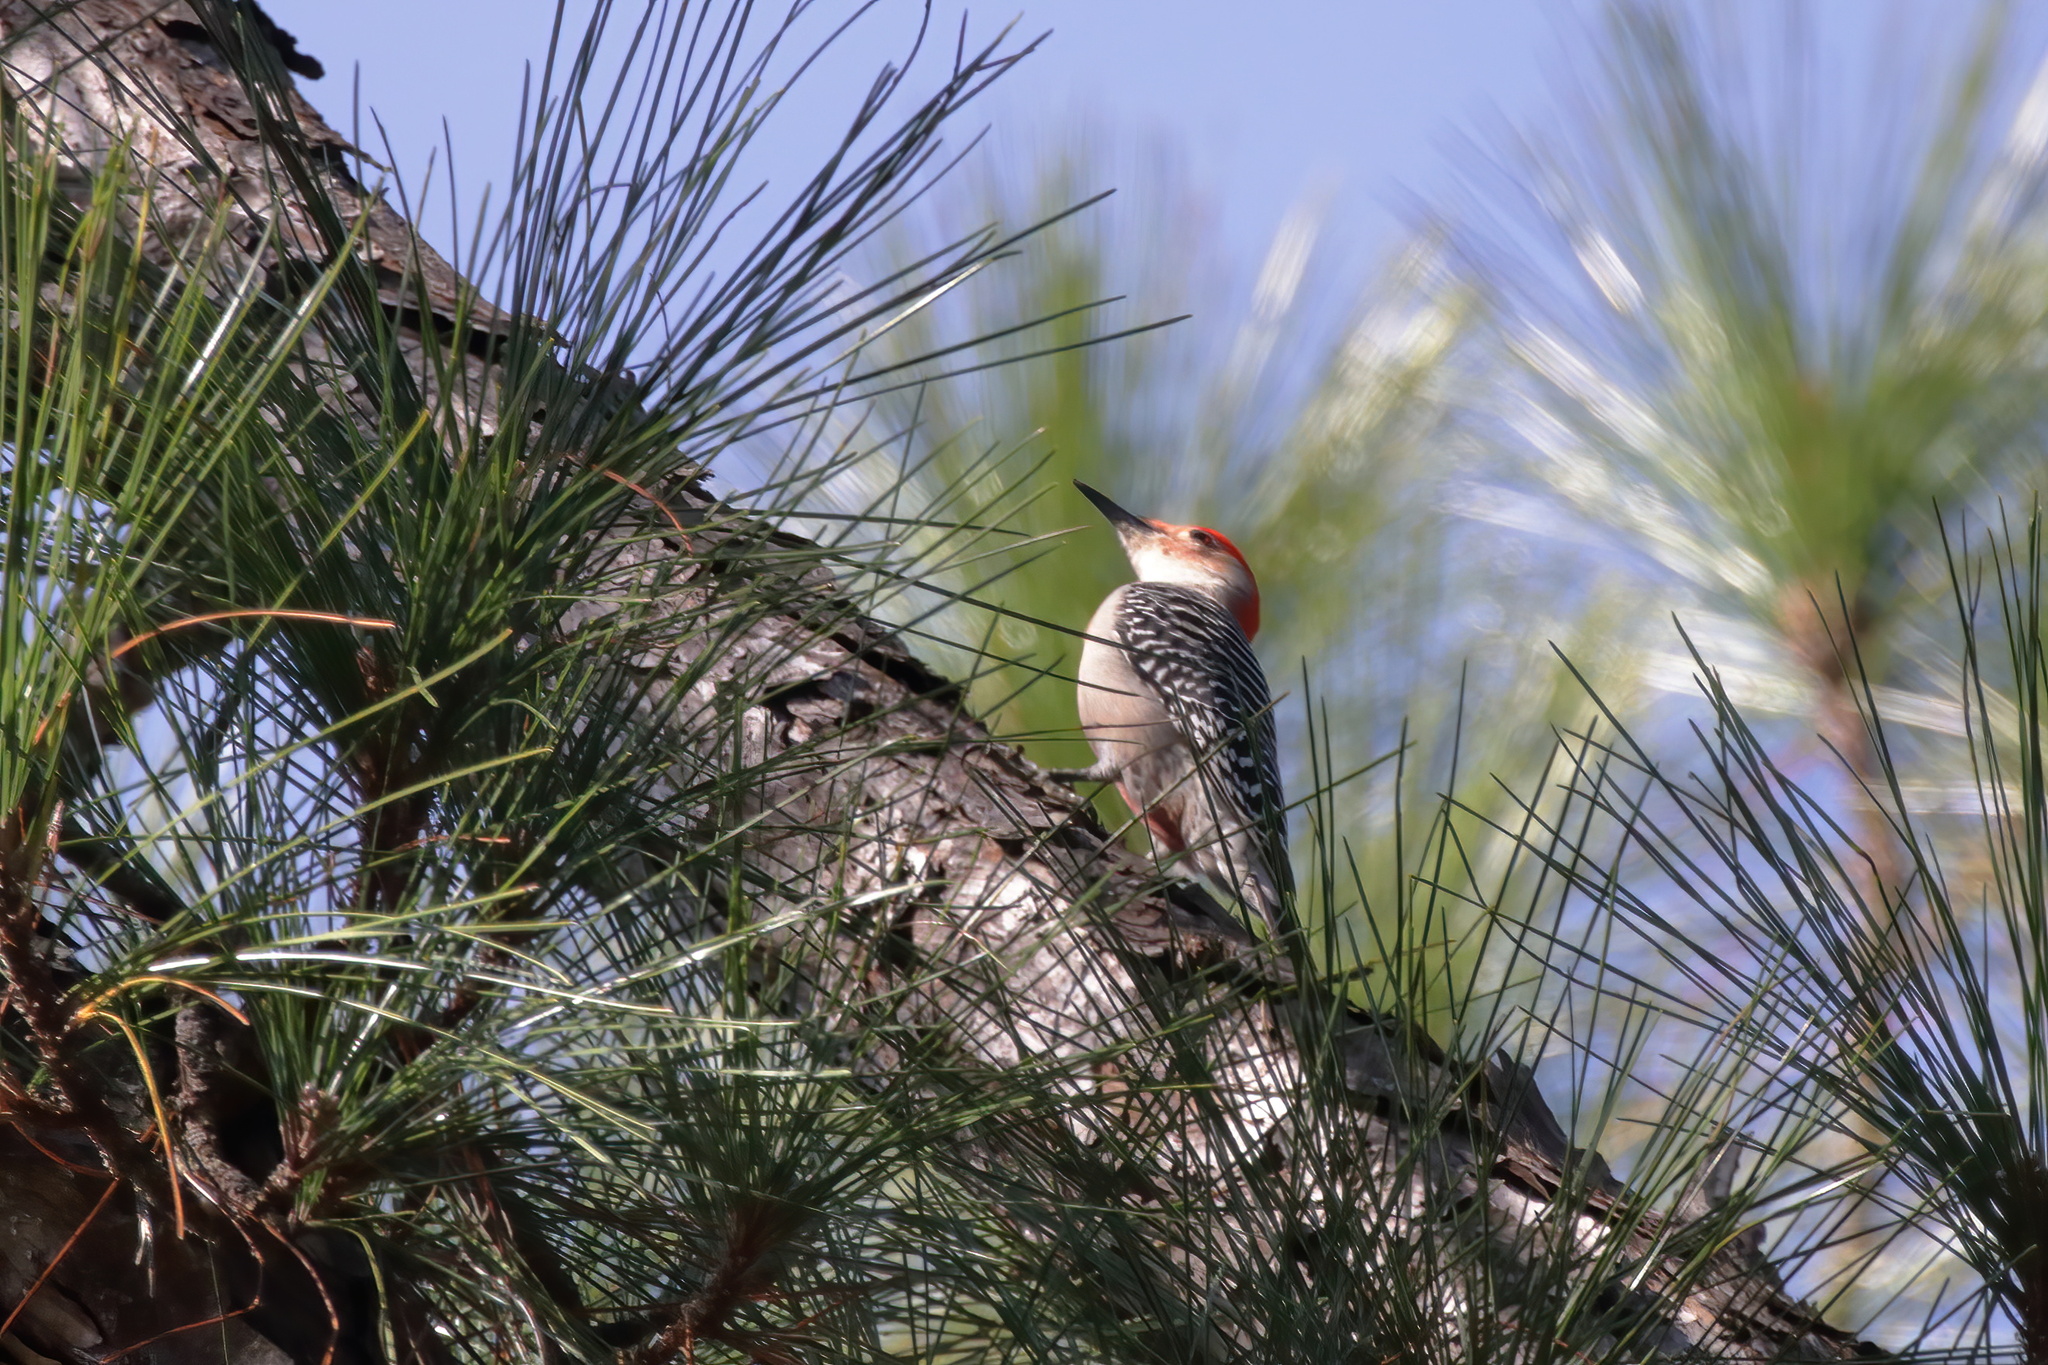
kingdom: Animalia
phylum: Chordata
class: Aves
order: Piciformes
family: Picidae
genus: Melanerpes
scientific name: Melanerpes carolinus
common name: Red-bellied woodpecker
